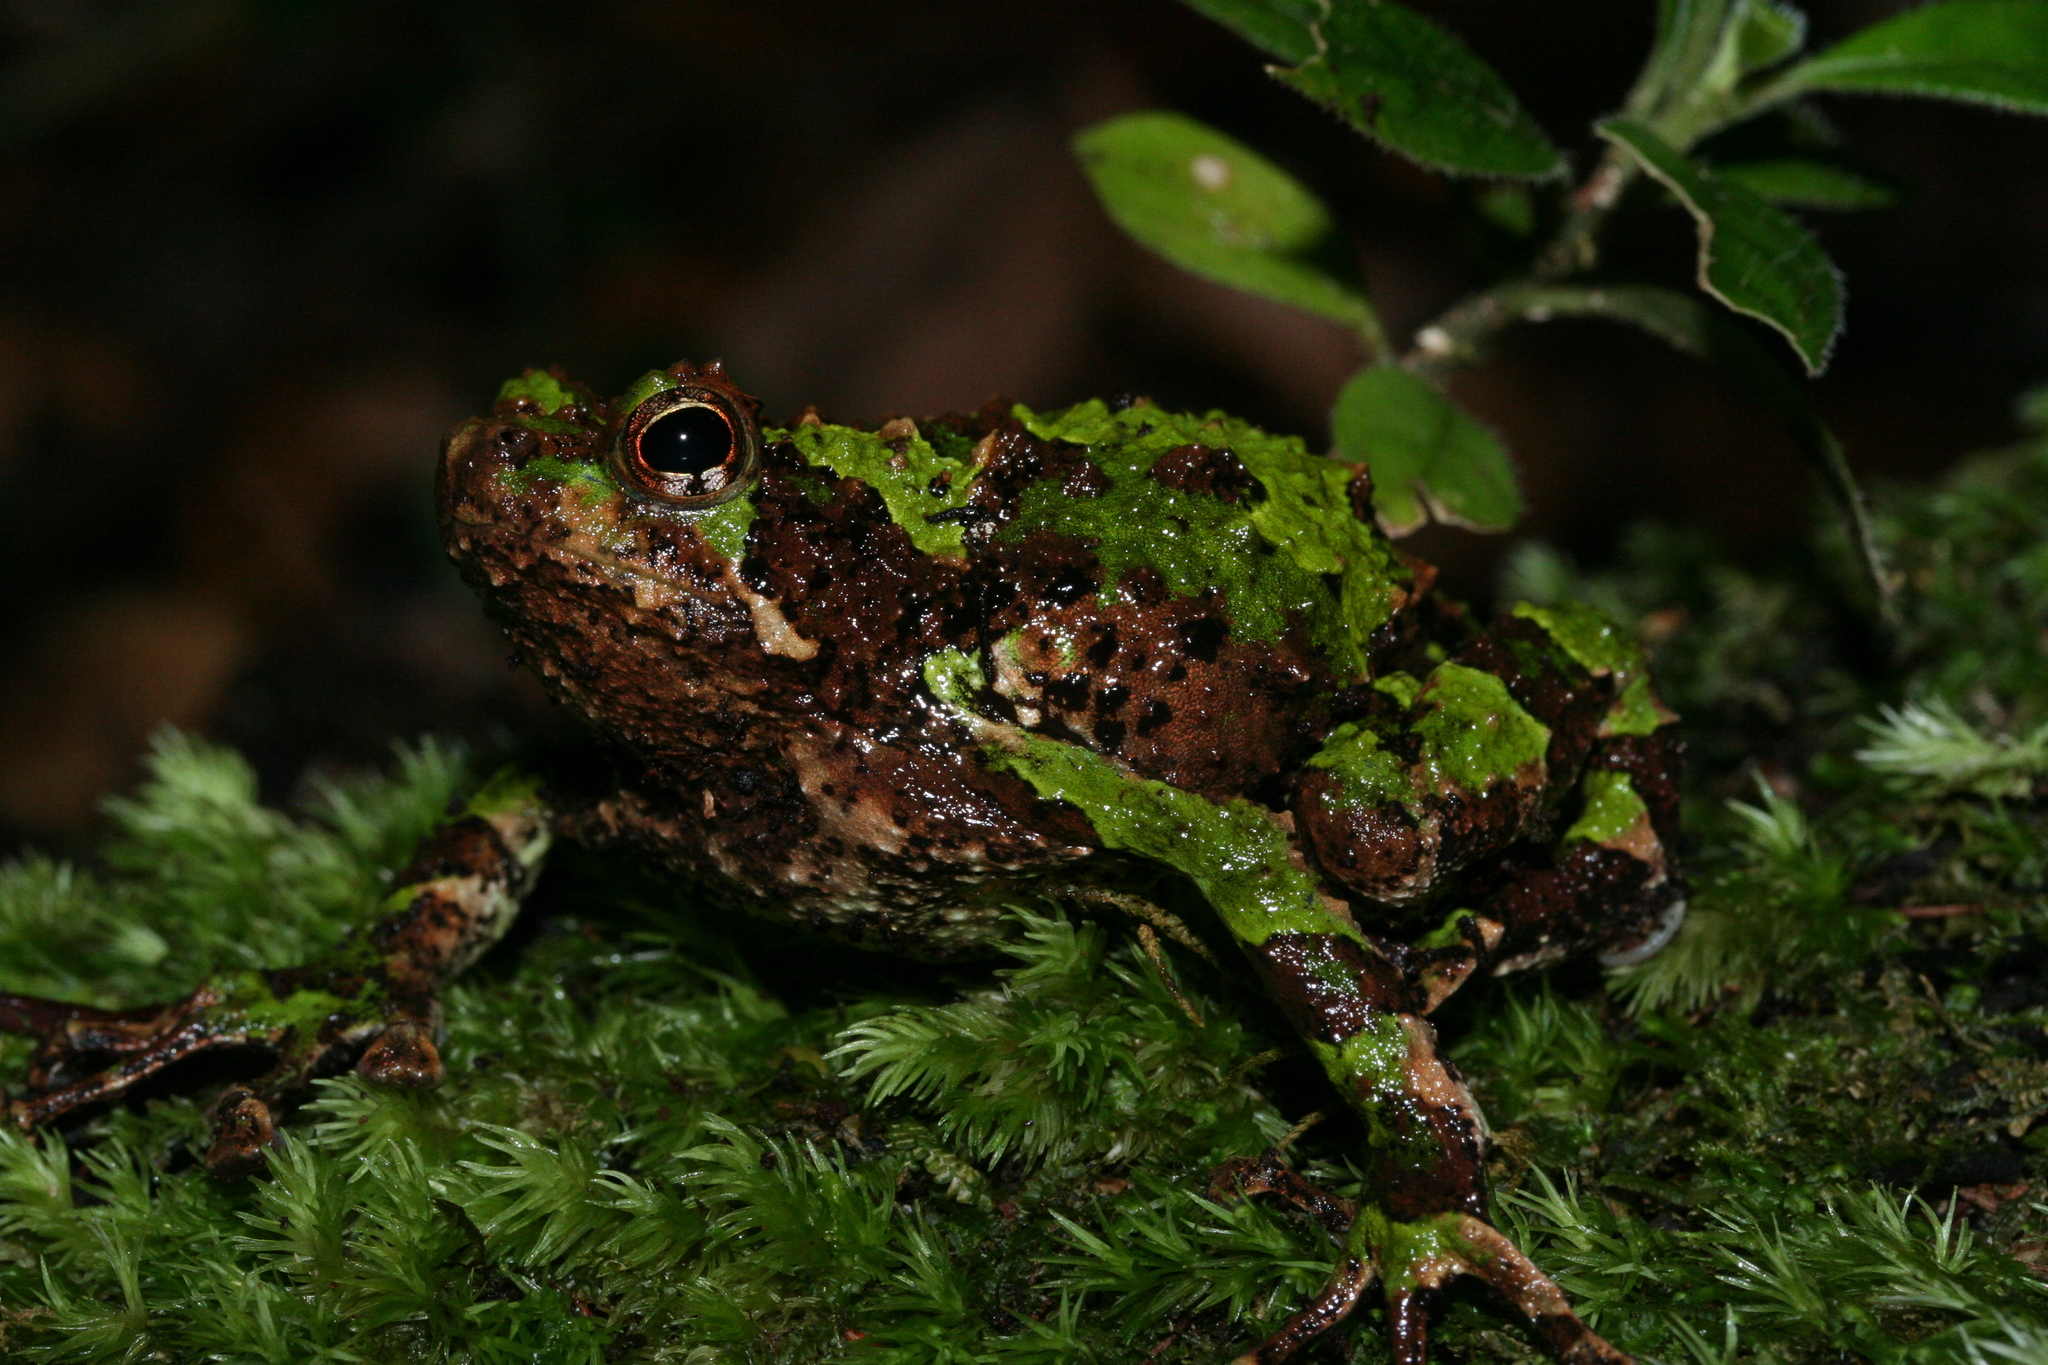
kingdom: Animalia
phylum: Chordata
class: Amphibia
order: Anura
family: Microhylidae
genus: Scaphiophryne
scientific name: Scaphiophryne spinosa
